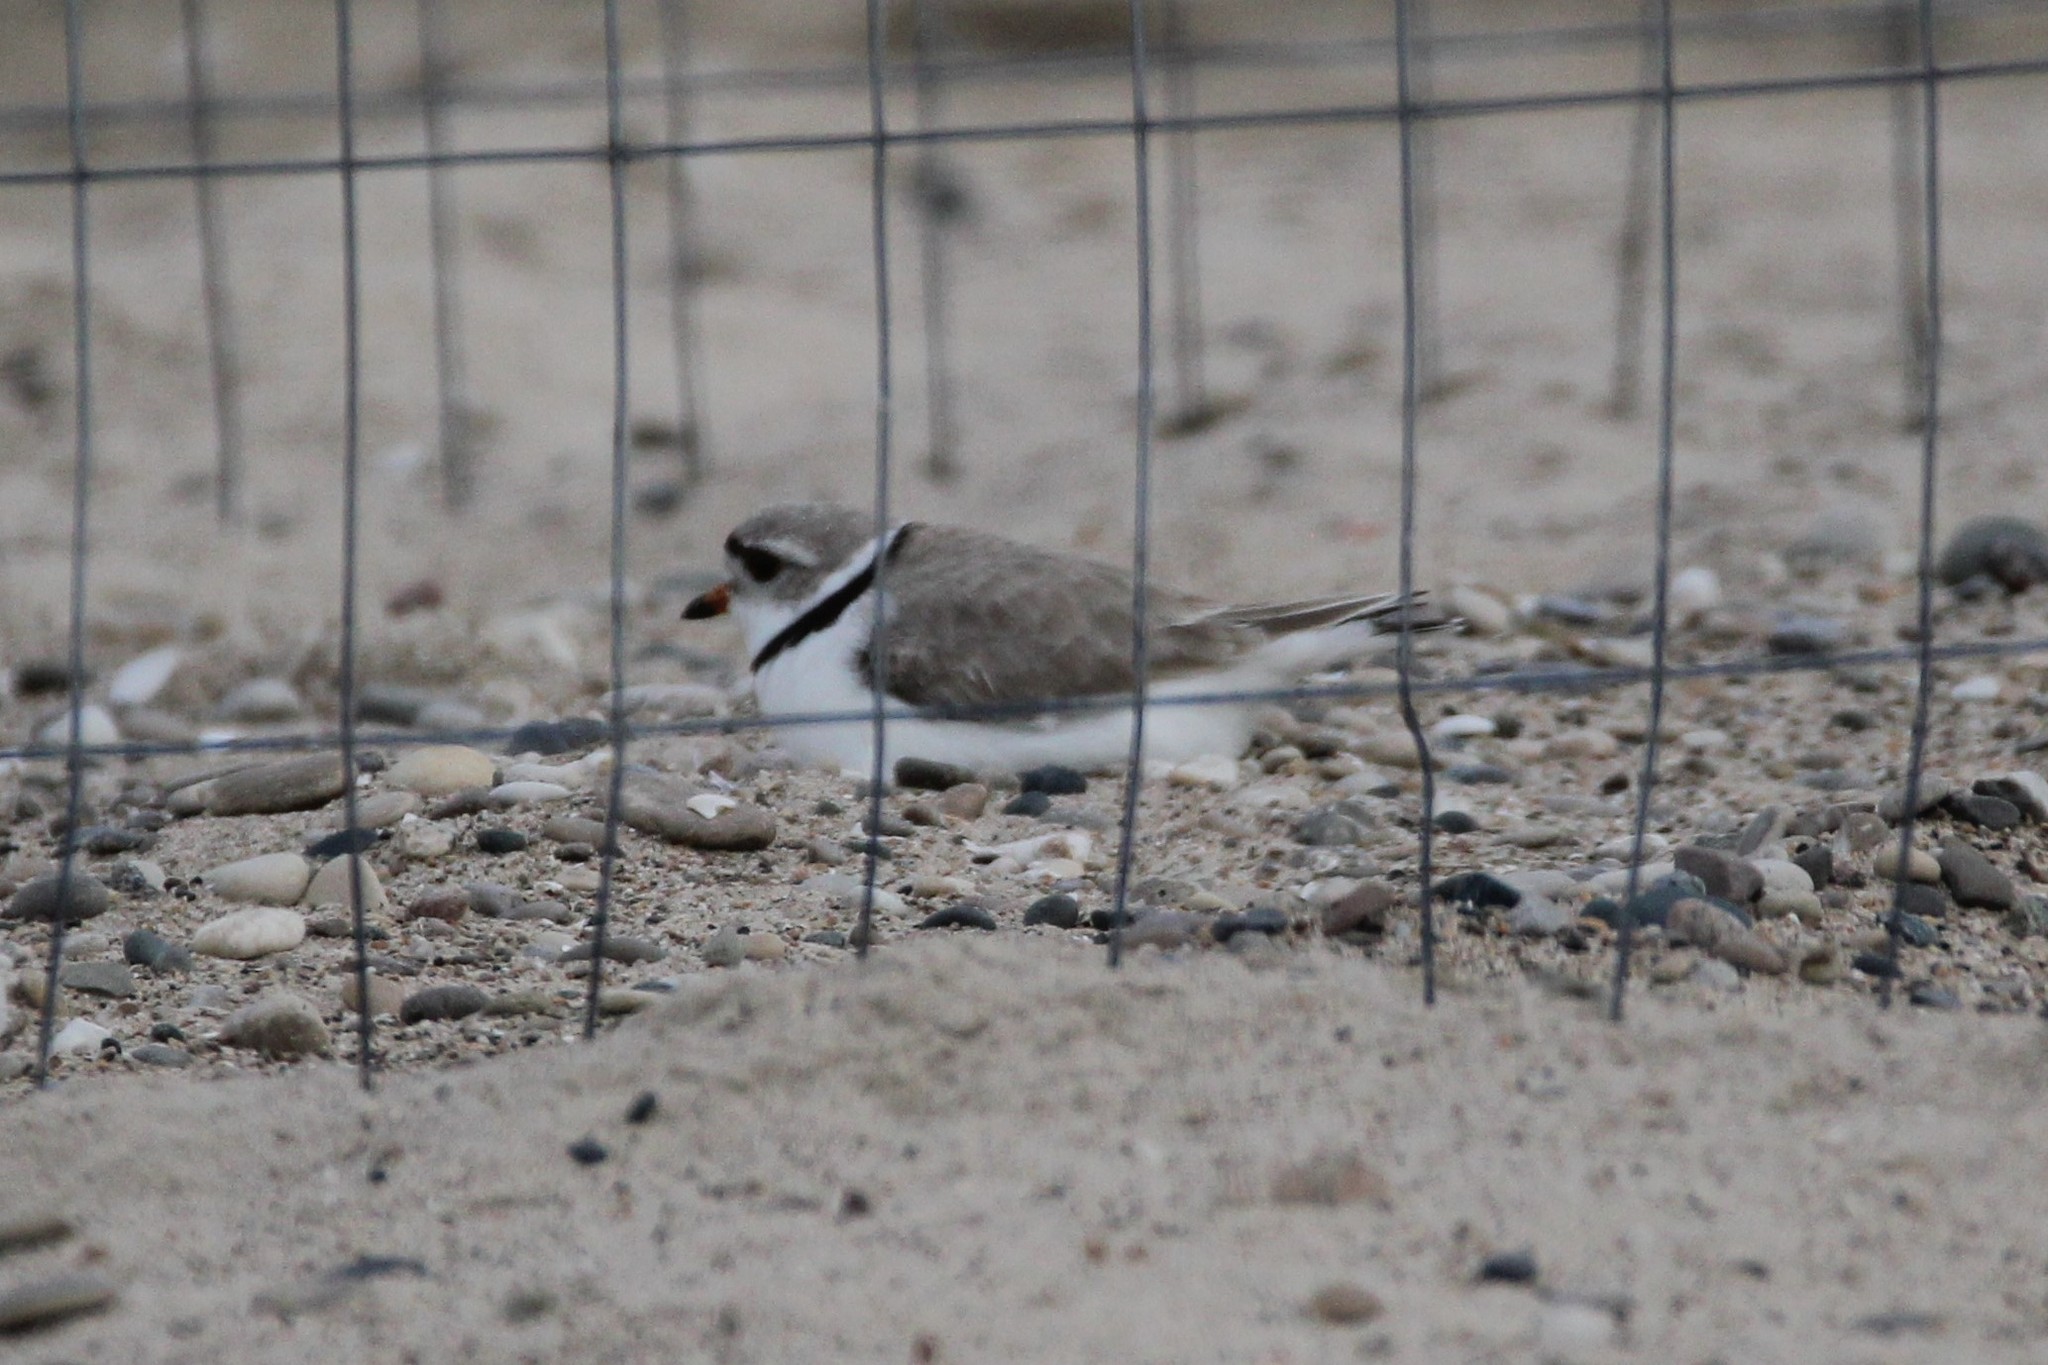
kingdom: Animalia
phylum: Chordata
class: Aves
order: Charadriiformes
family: Charadriidae
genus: Charadrius
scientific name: Charadrius melodus
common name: Piping plover
